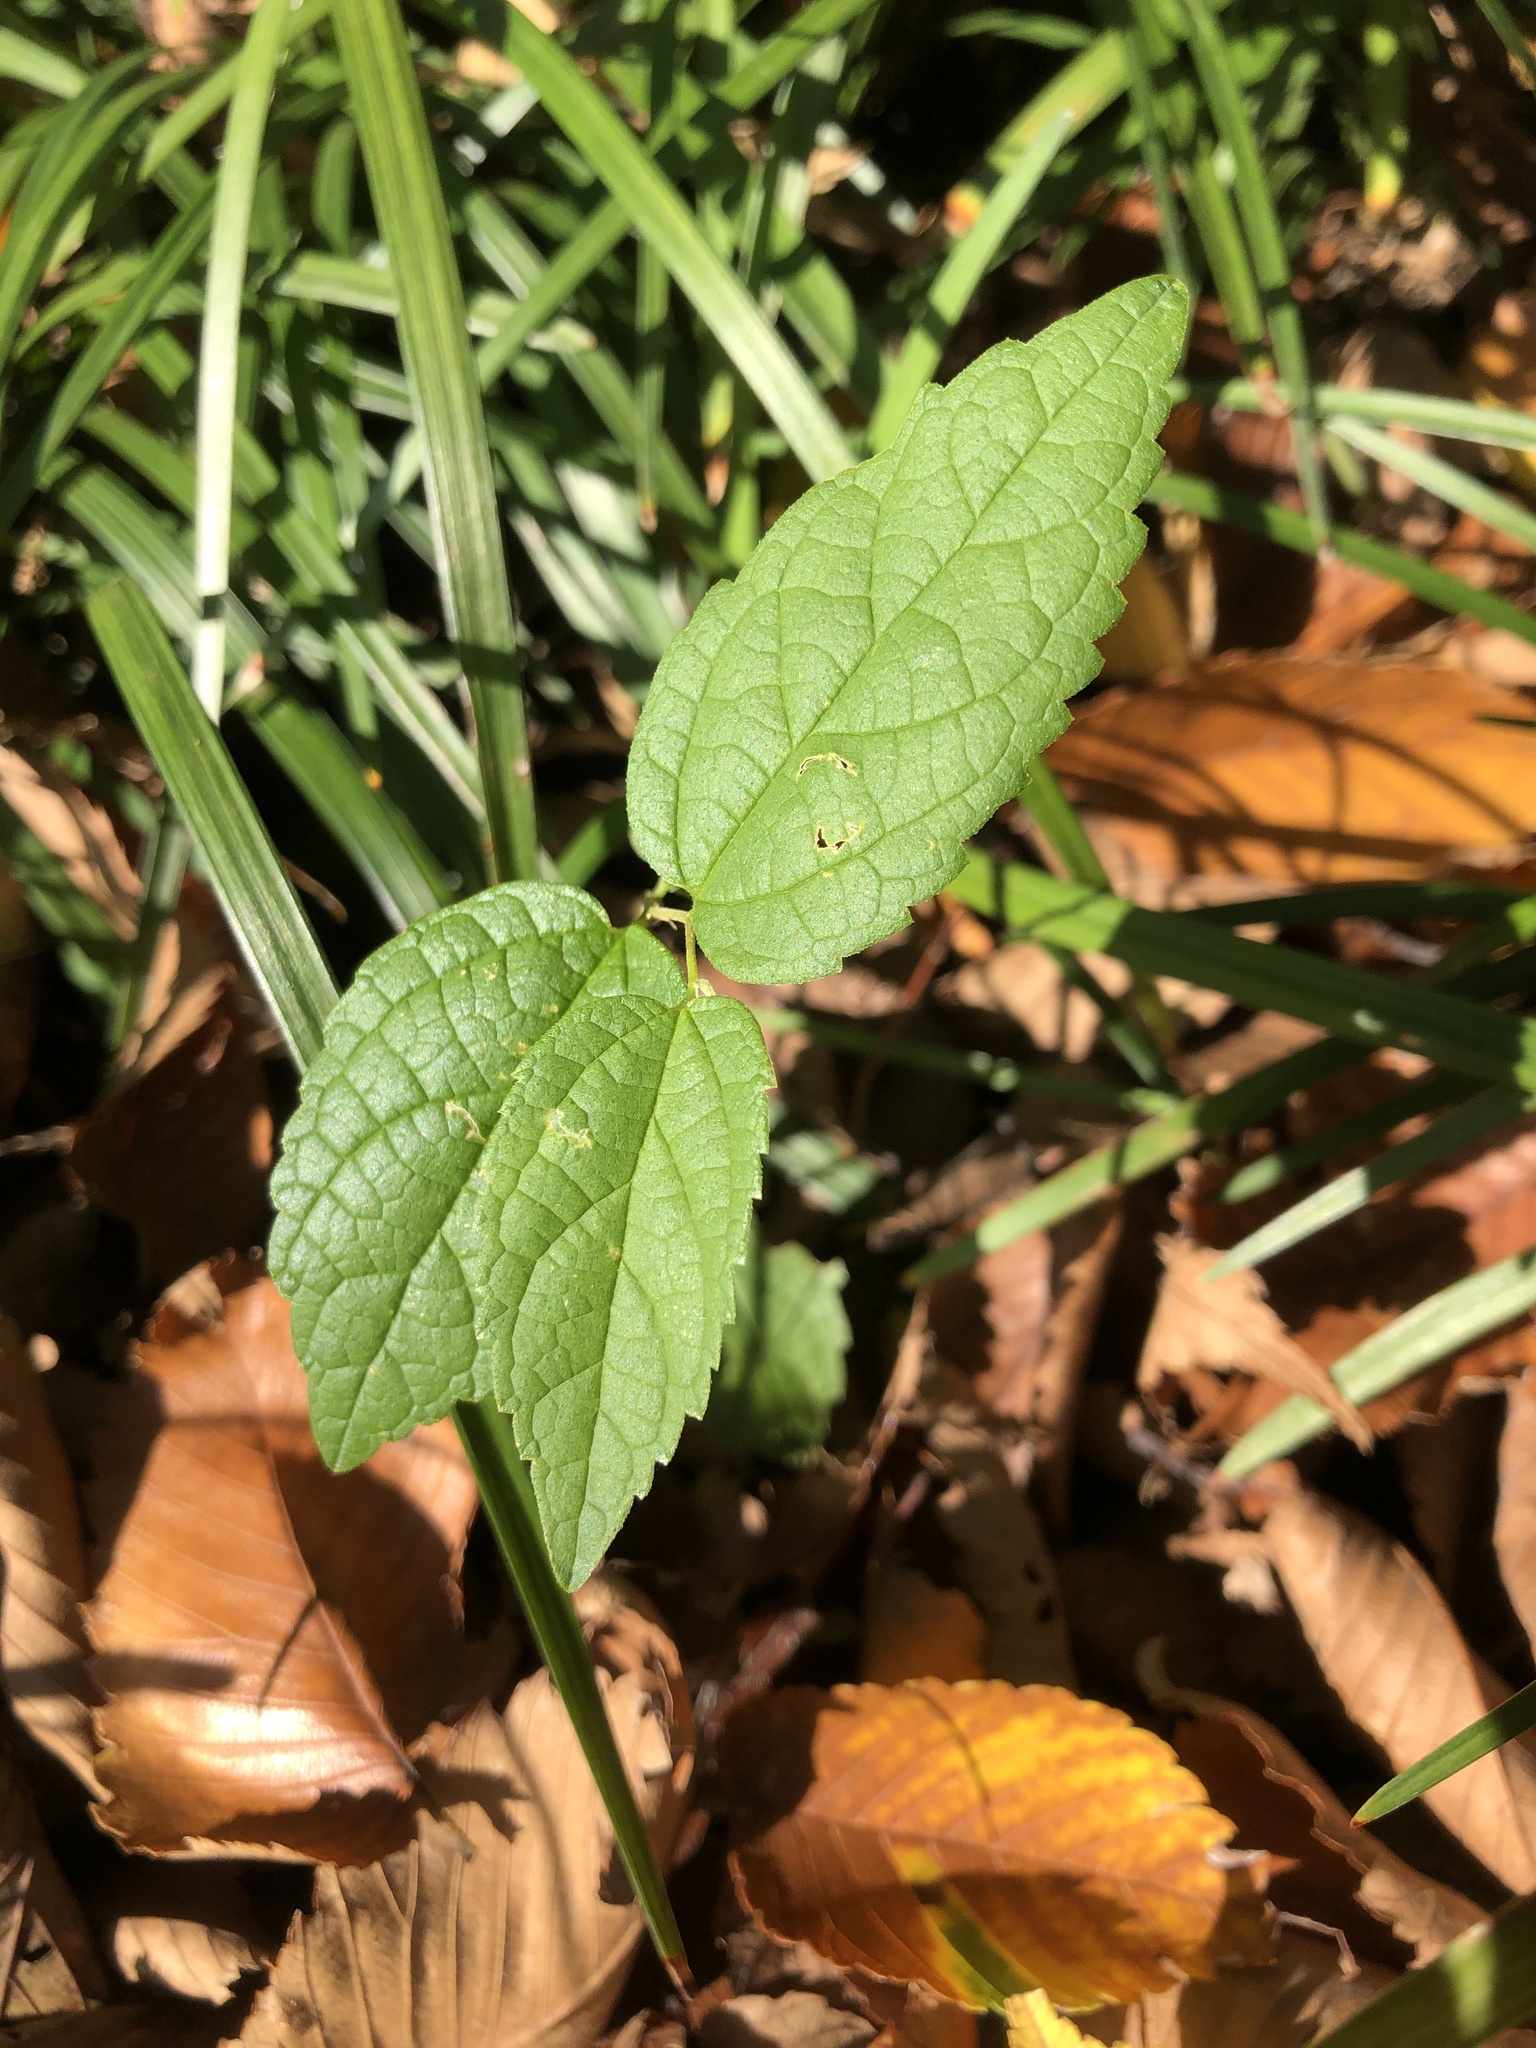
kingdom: Plantae
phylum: Tracheophyta
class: Magnoliopsida
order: Rosales
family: Cannabaceae
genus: Celtis
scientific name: Celtis laevigata
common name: Sugarberry
